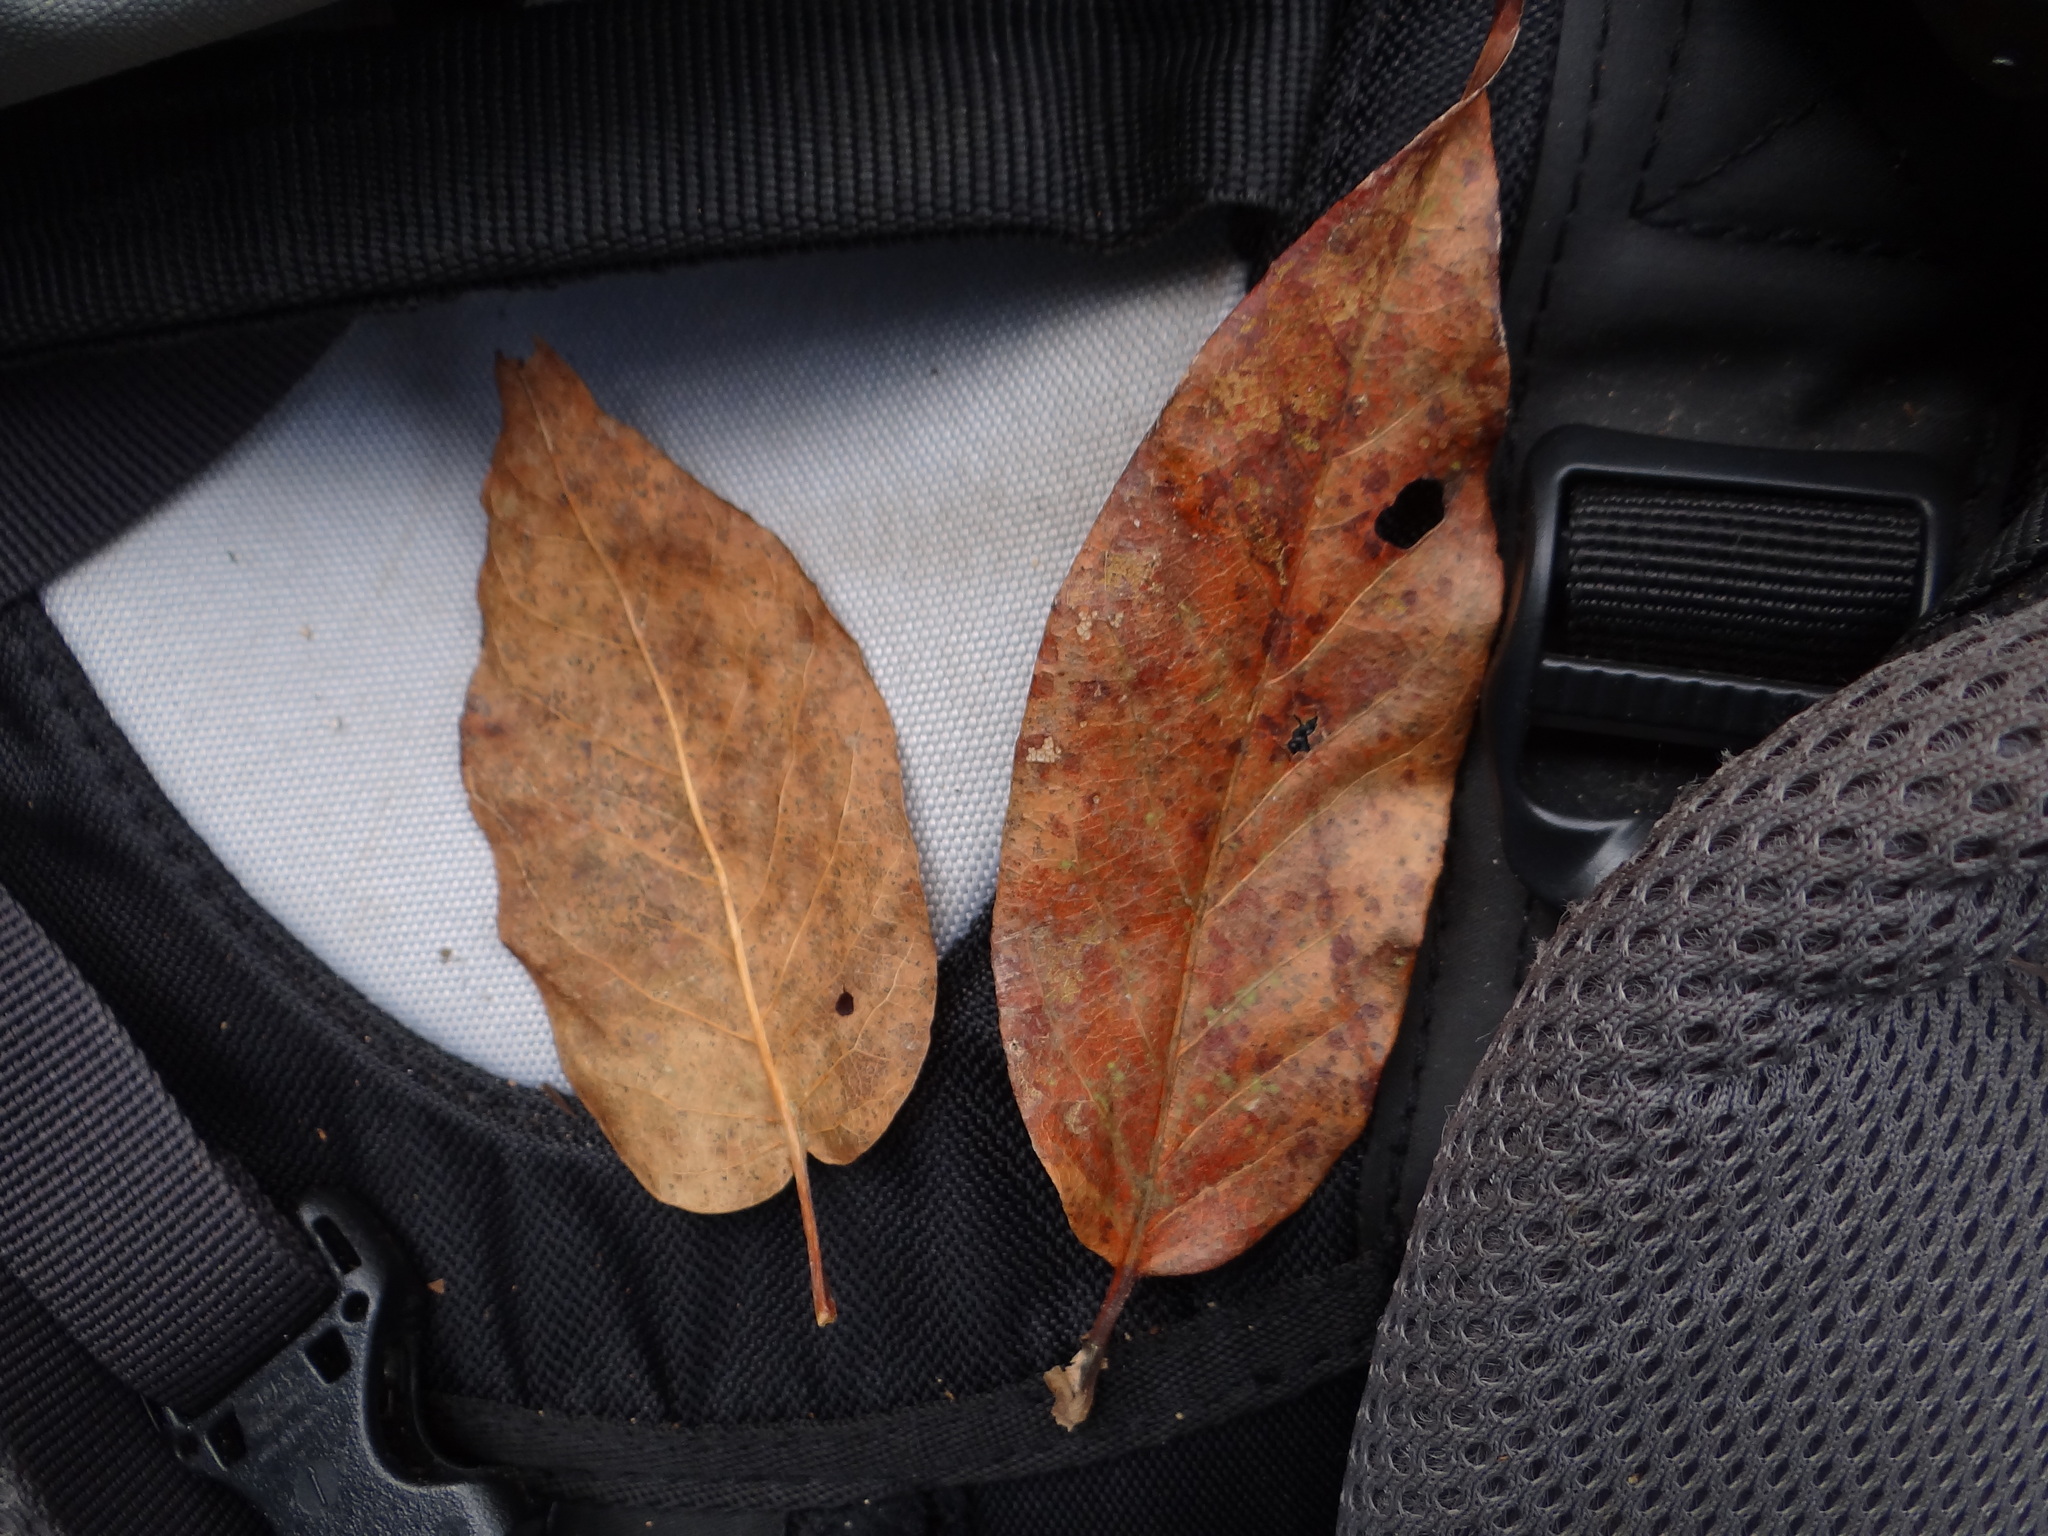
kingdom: Plantae
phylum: Tracheophyta
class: Magnoliopsida
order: Ericales
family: Ericaceae
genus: Lyonia
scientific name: Lyonia ovalifolia
